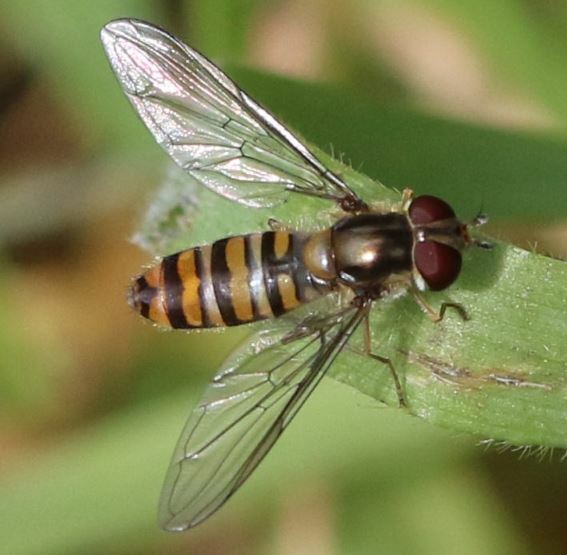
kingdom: Animalia
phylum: Arthropoda
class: Insecta
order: Diptera
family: Syrphidae
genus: Episyrphus
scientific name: Episyrphus balteatus
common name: Marmalade hoverfly
